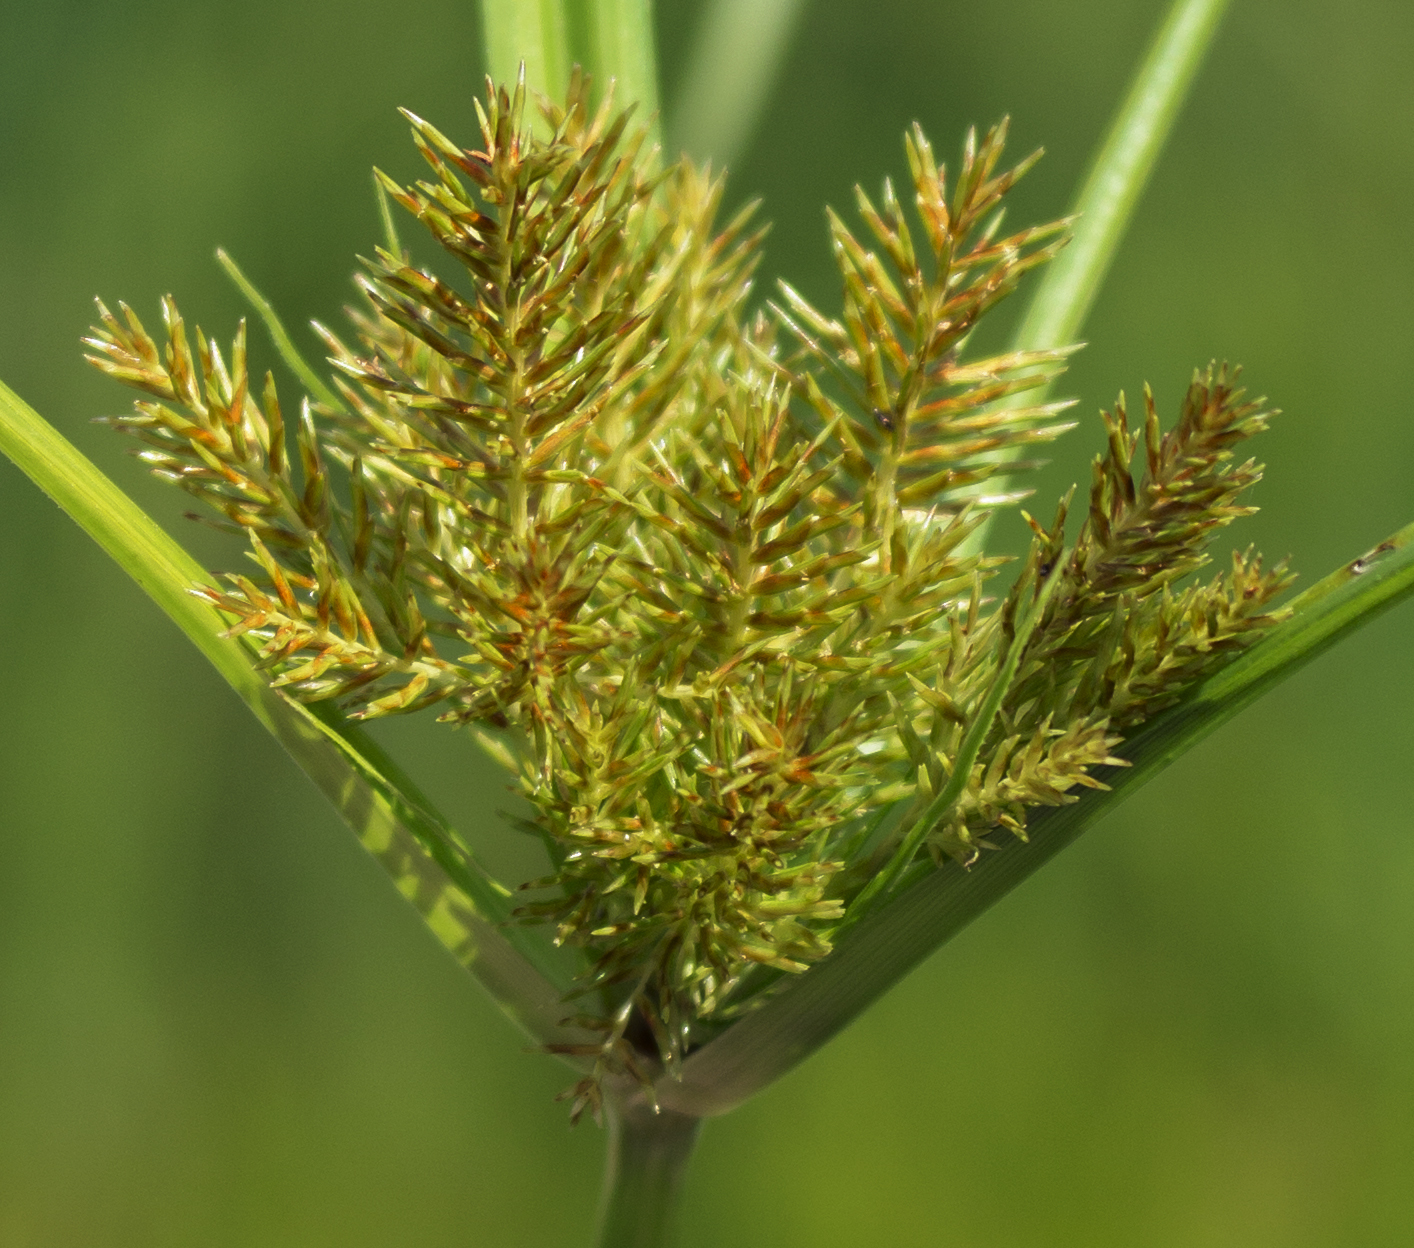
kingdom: Plantae
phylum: Tracheophyta
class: Liliopsida
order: Poales
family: Cyperaceae
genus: Cyperus
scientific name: Cyperus erythrorhizos
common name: Red-root flat sedge
